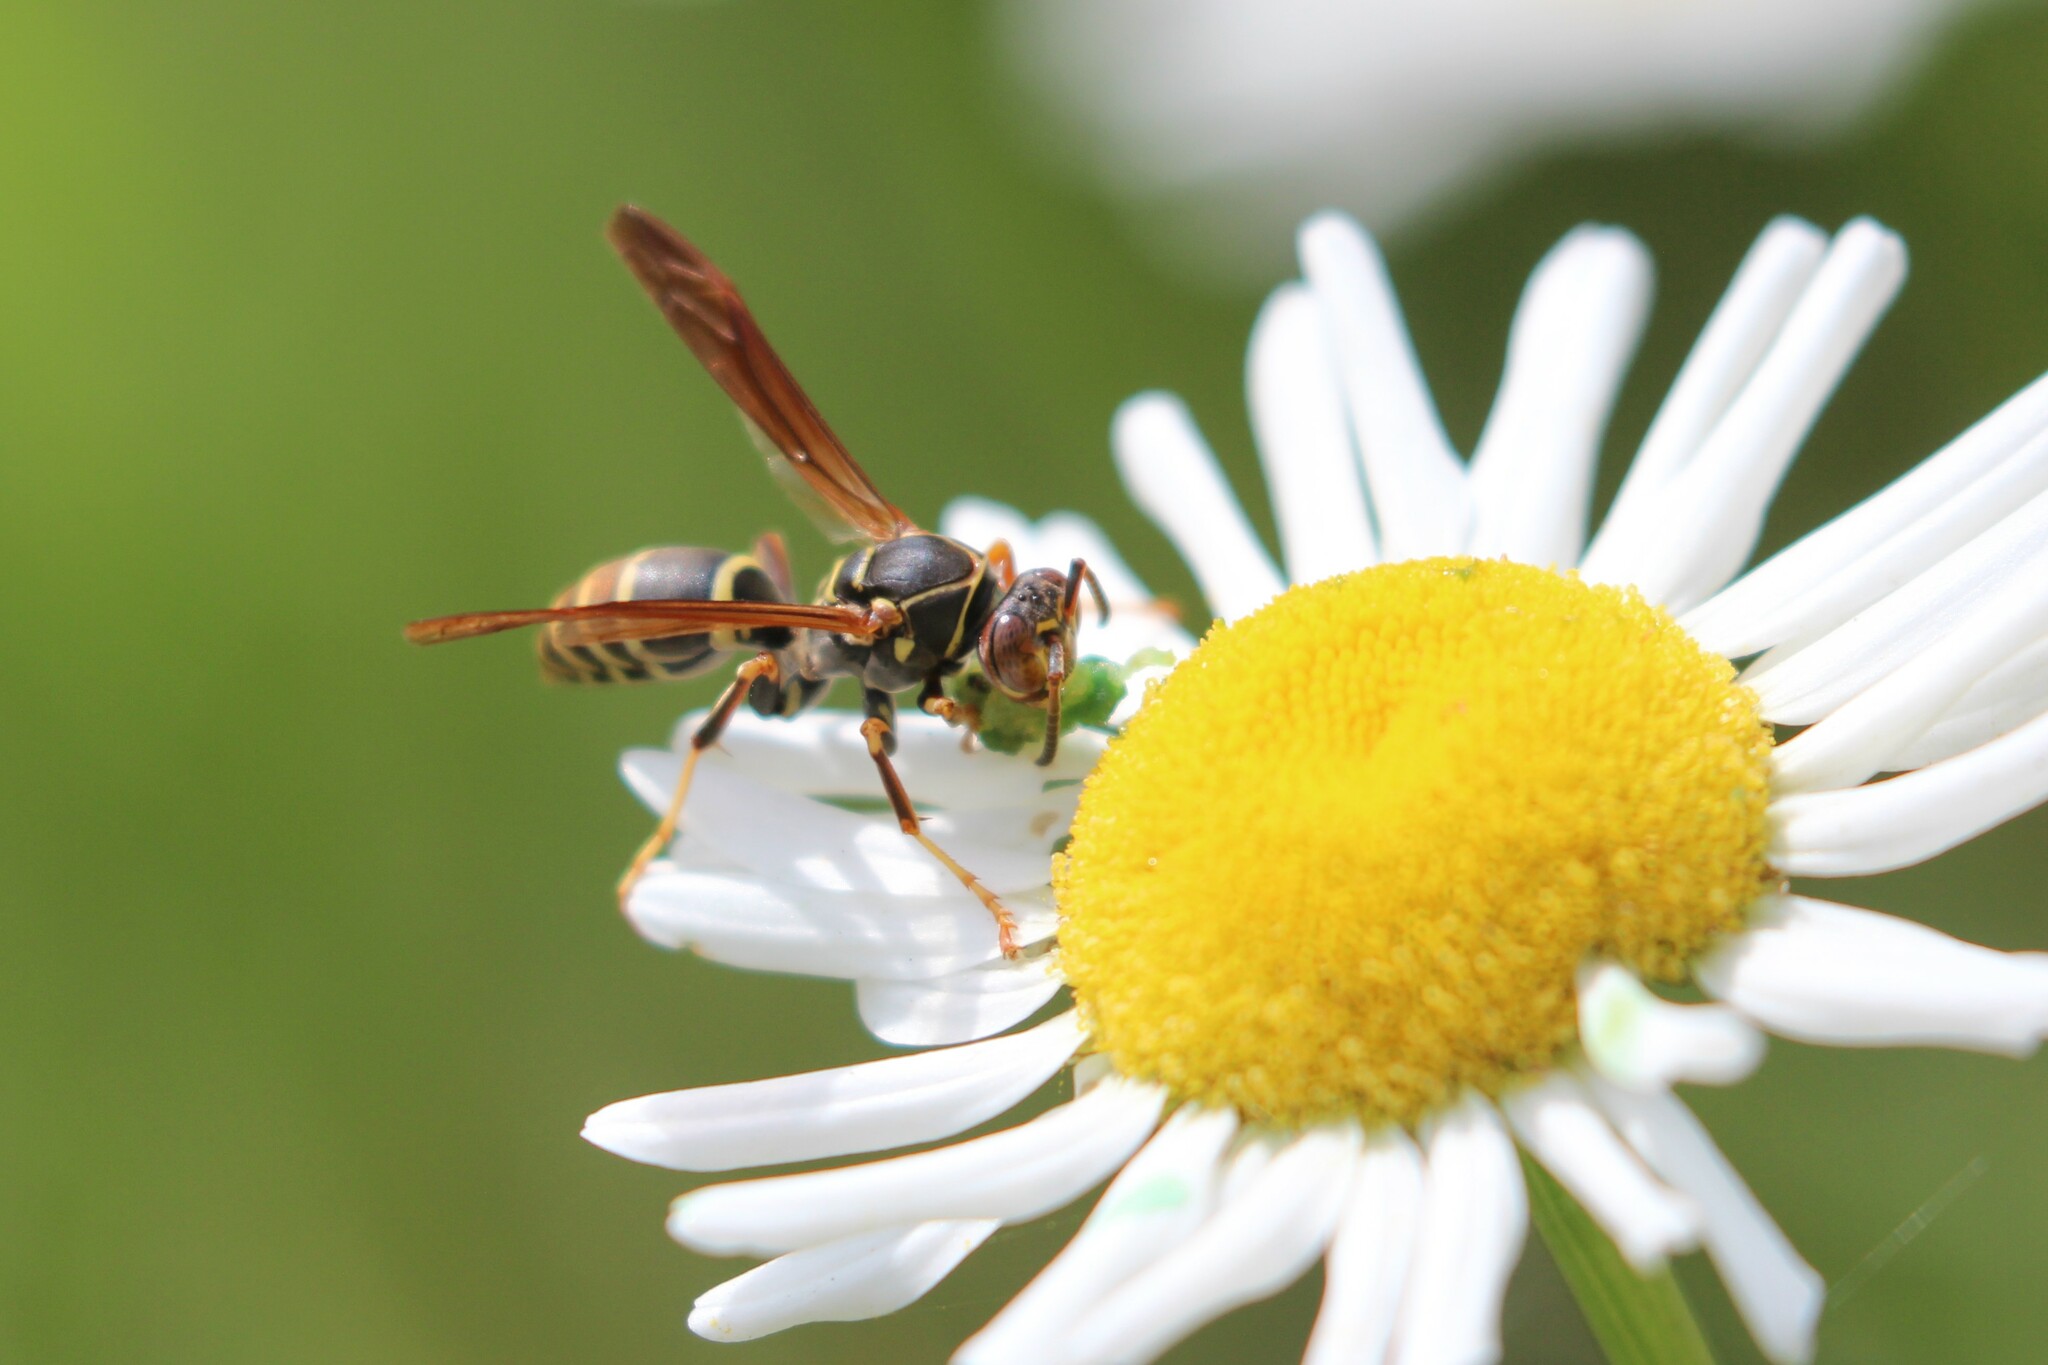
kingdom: Animalia
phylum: Arthropoda
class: Insecta
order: Hymenoptera
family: Eumenidae
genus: Polistes
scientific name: Polistes fuscatus
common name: Dark paper wasp
